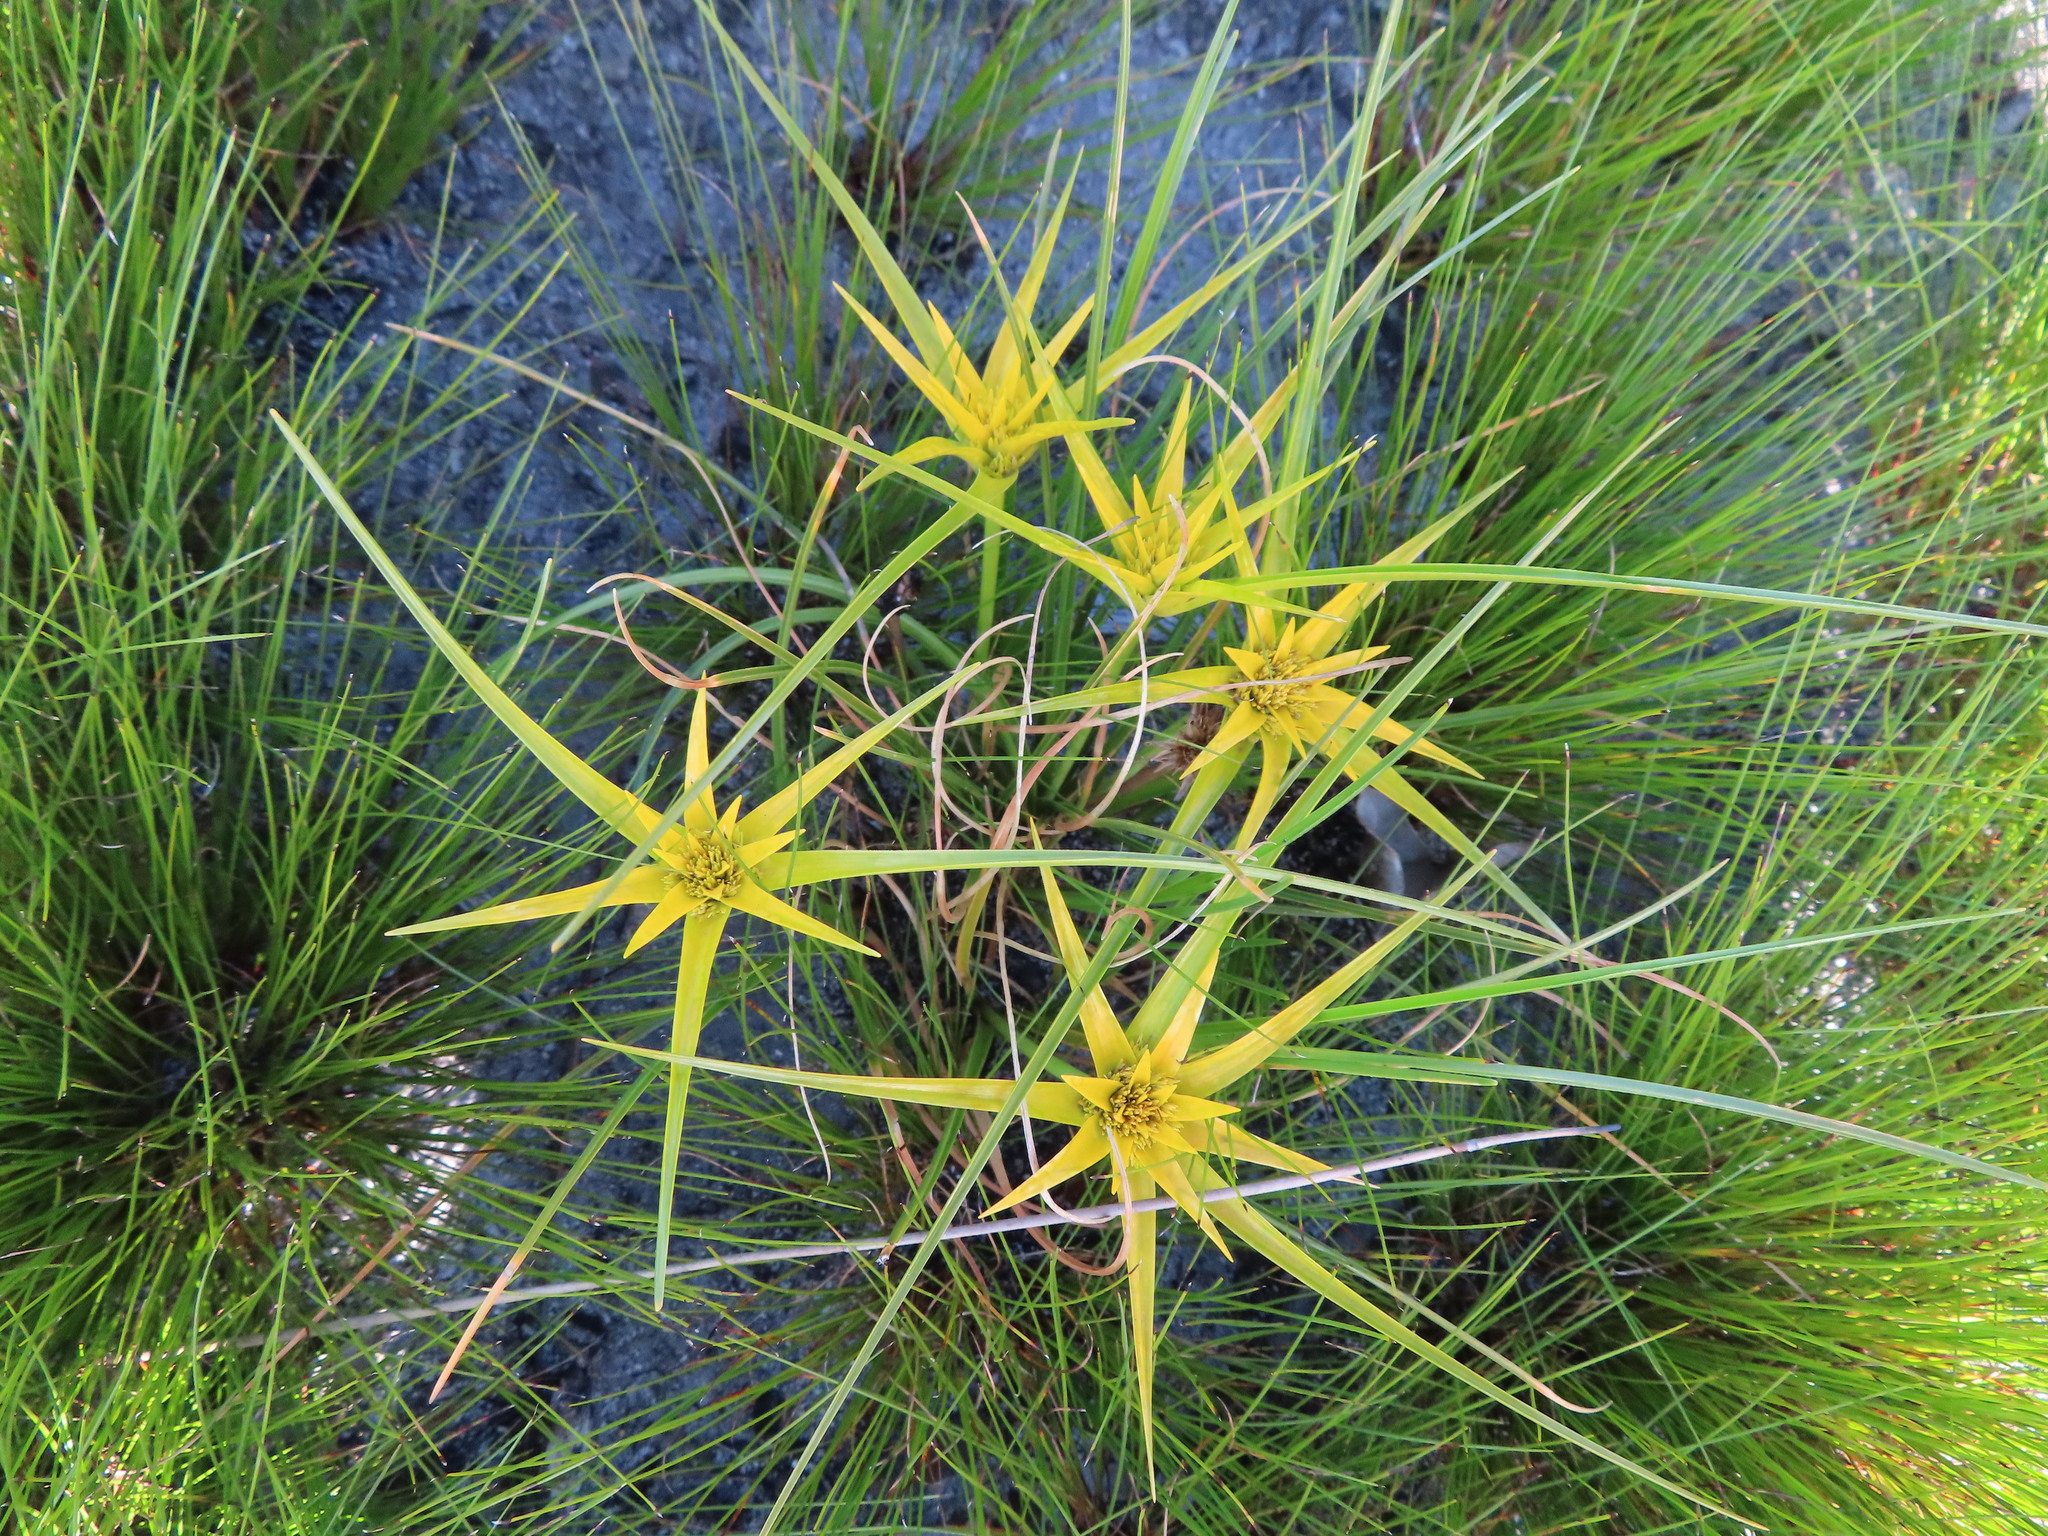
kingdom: Plantae
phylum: Tracheophyta
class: Liliopsida
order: Poales
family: Cyperaceae
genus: Ficinia
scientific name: Ficinia radiata
